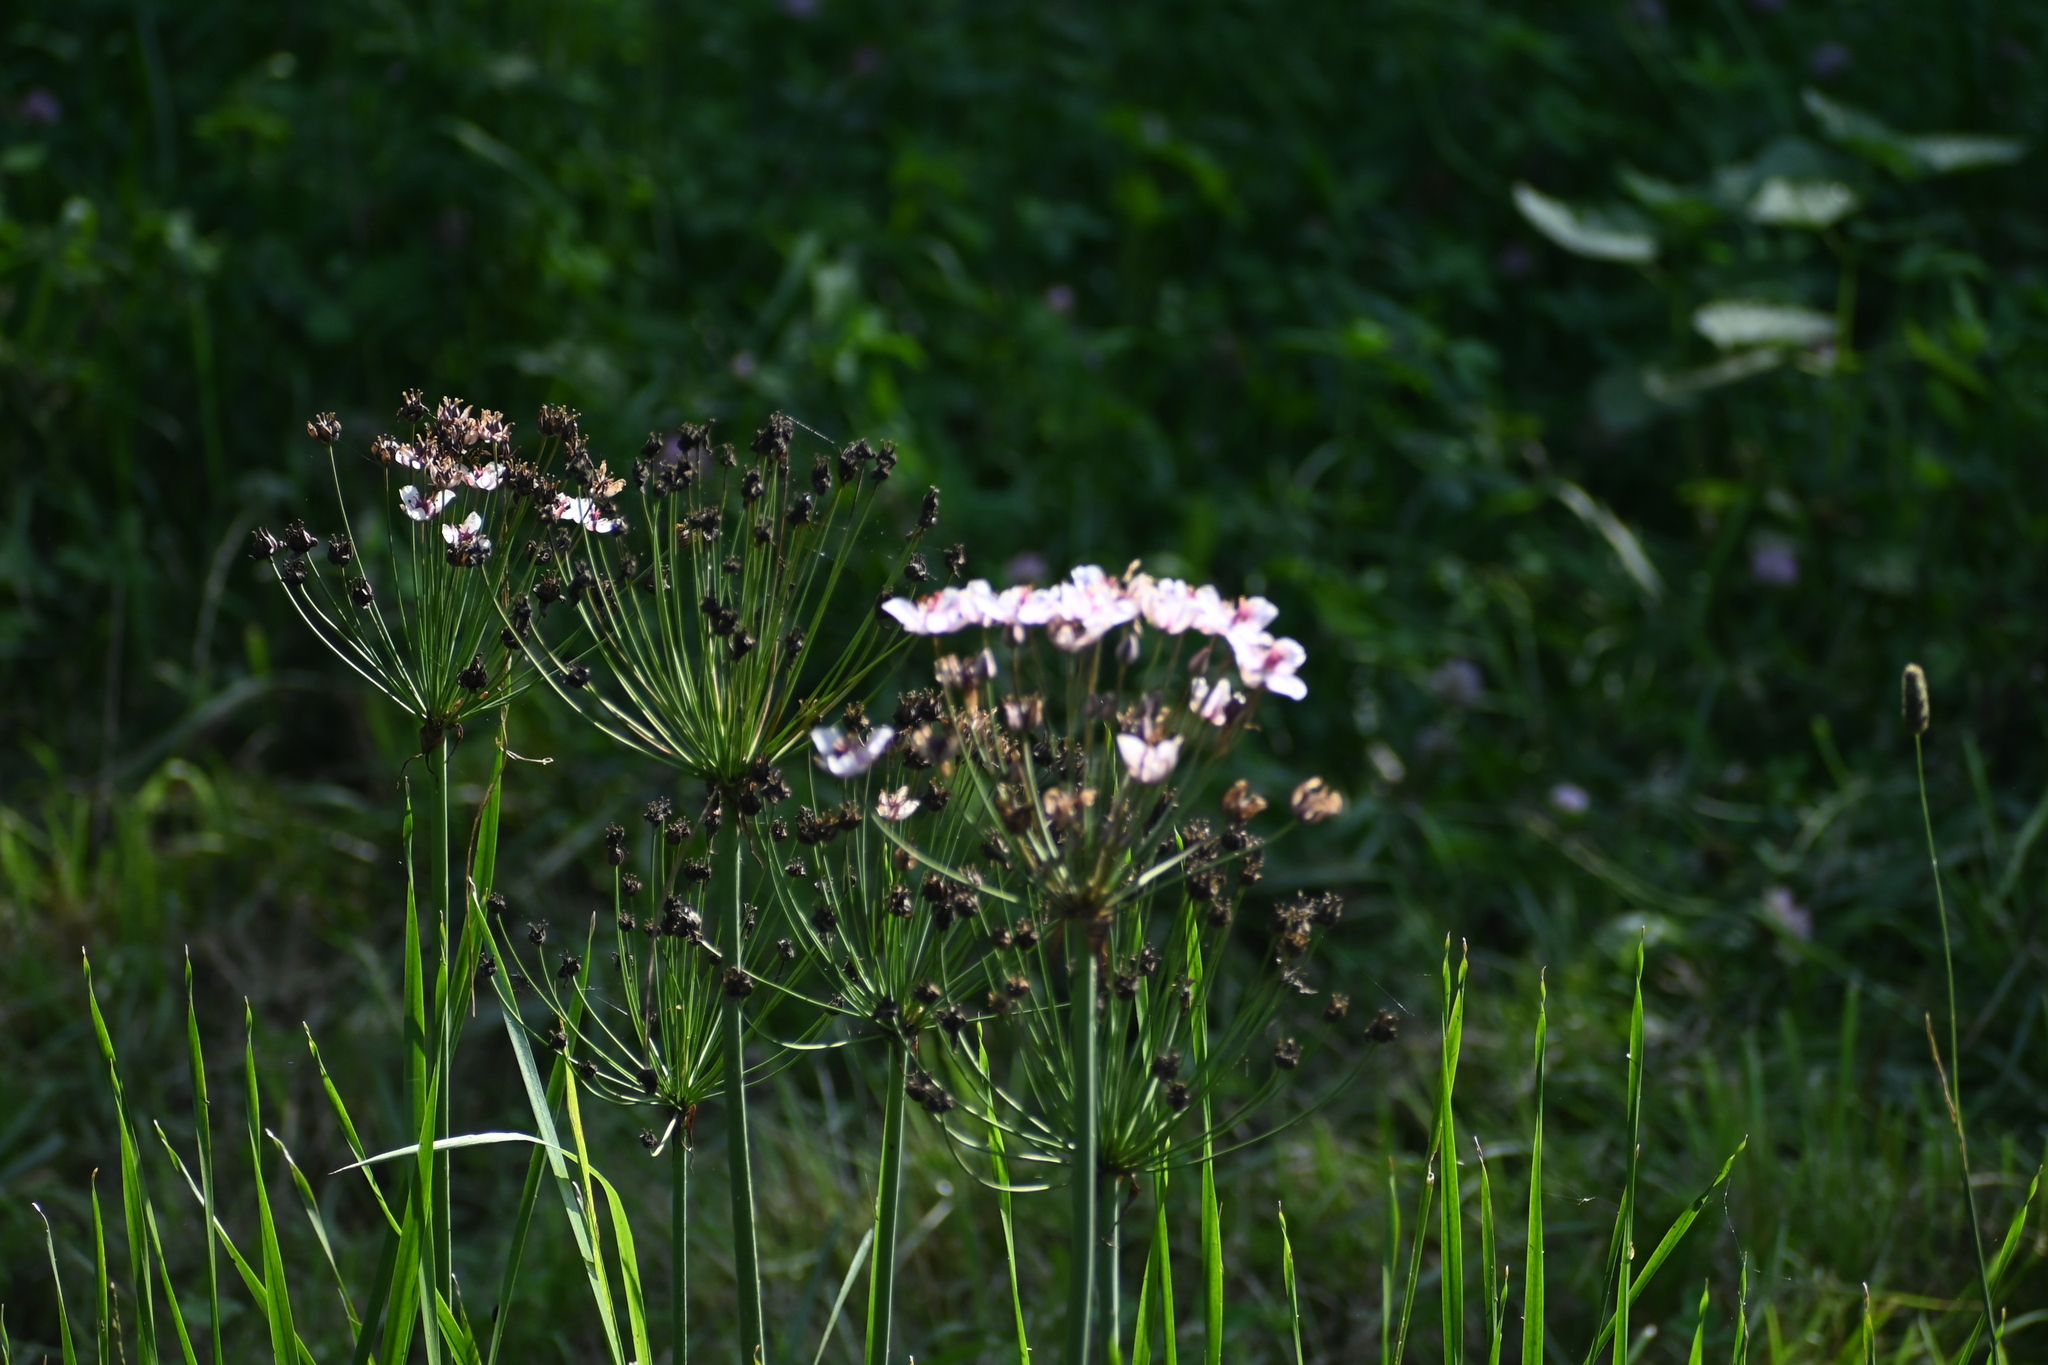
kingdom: Plantae
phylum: Tracheophyta
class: Liliopsida
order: Alismatales
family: Butomaceae
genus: Butomus
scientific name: Butomus umbellatus
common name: Flowering-rush
